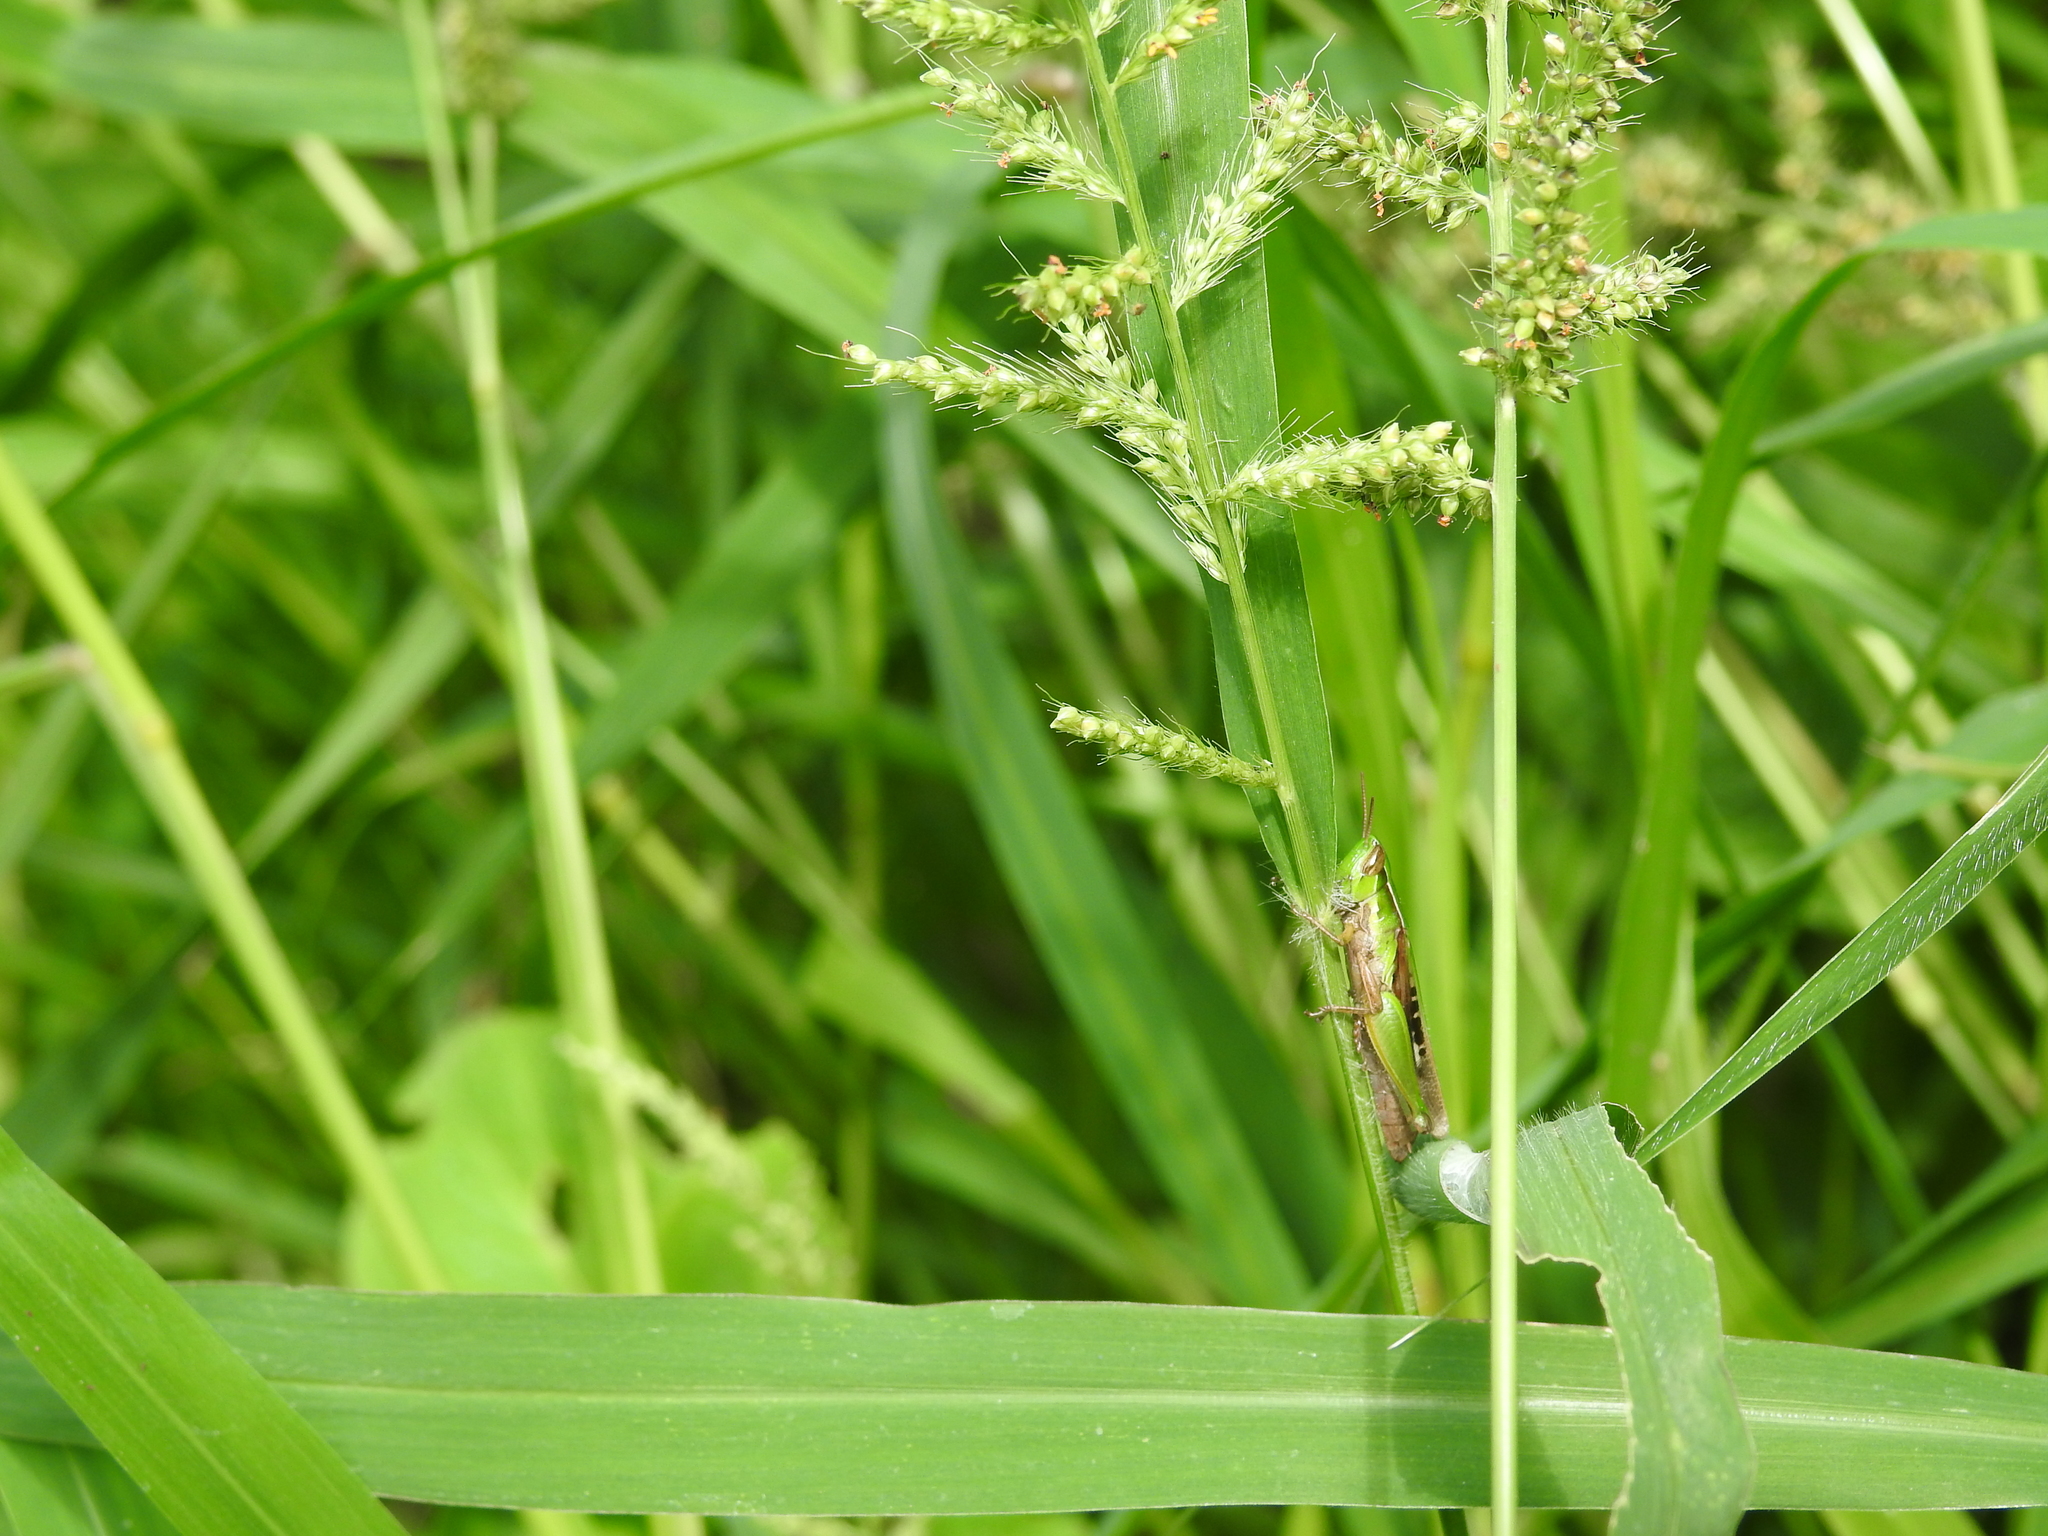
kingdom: Animalia
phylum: Arthropoda
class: Insecta
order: Orthoptera
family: Acrididae
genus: Spathosternum
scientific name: Spathosternum prasiniferum
